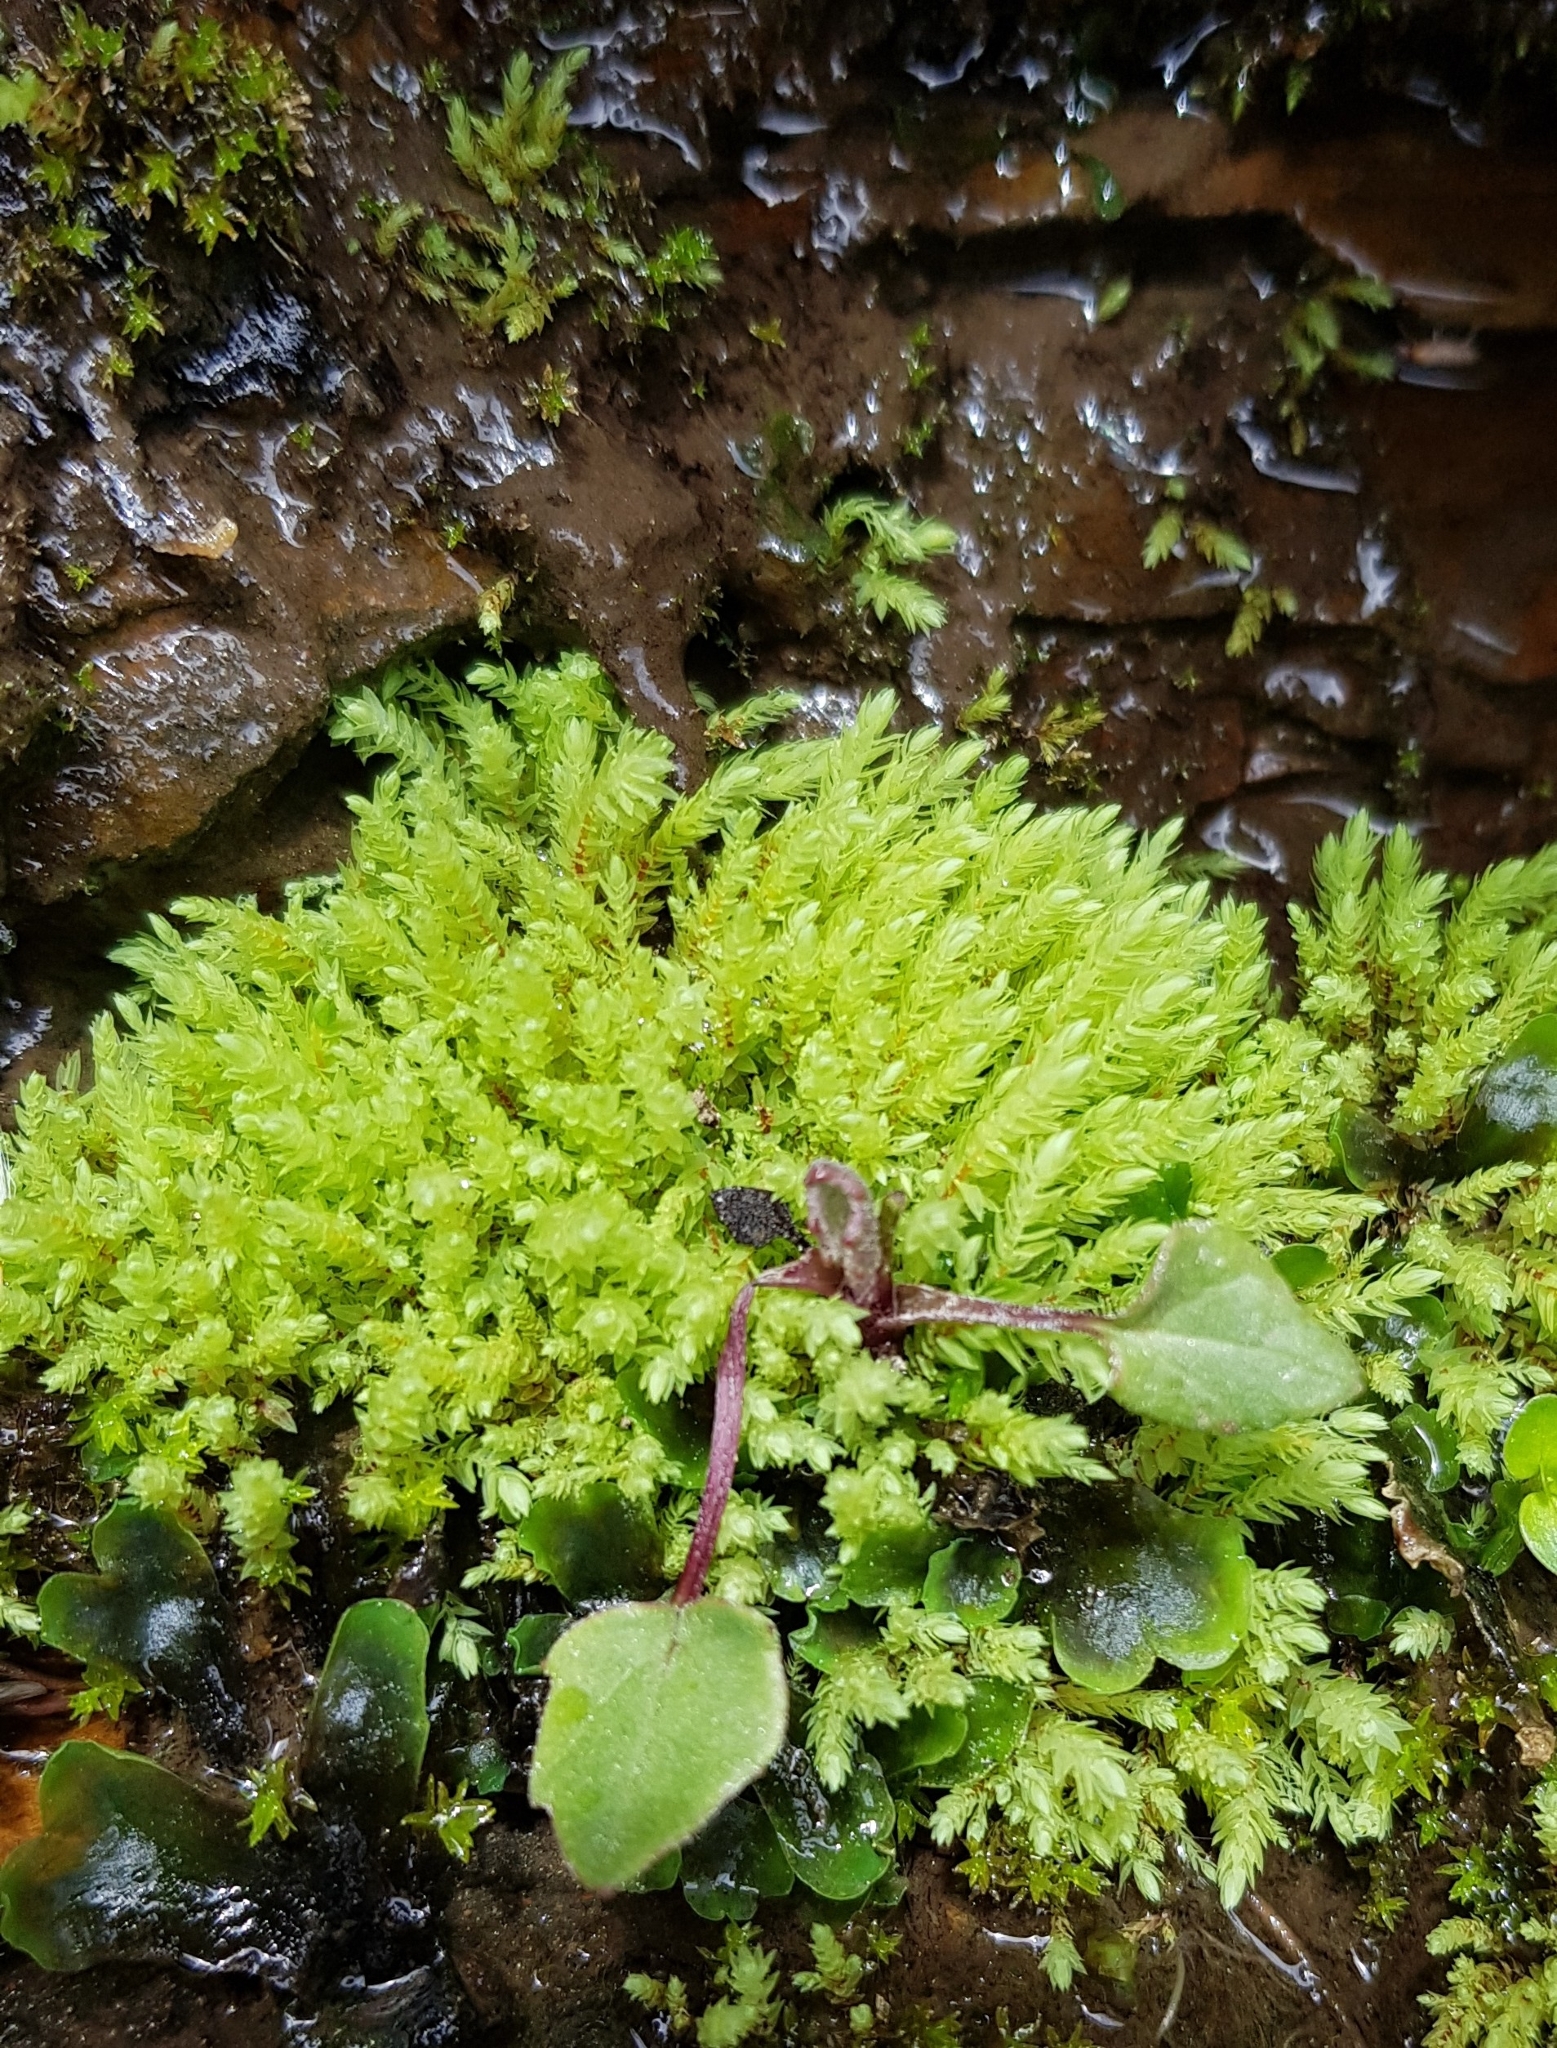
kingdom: Plantae
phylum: Bryophyta
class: Bryopsida
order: Bryales
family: Mniaceae
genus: Pohlia
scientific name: Pohlia wahlenbergii
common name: Wahlenberg's nodding moss
